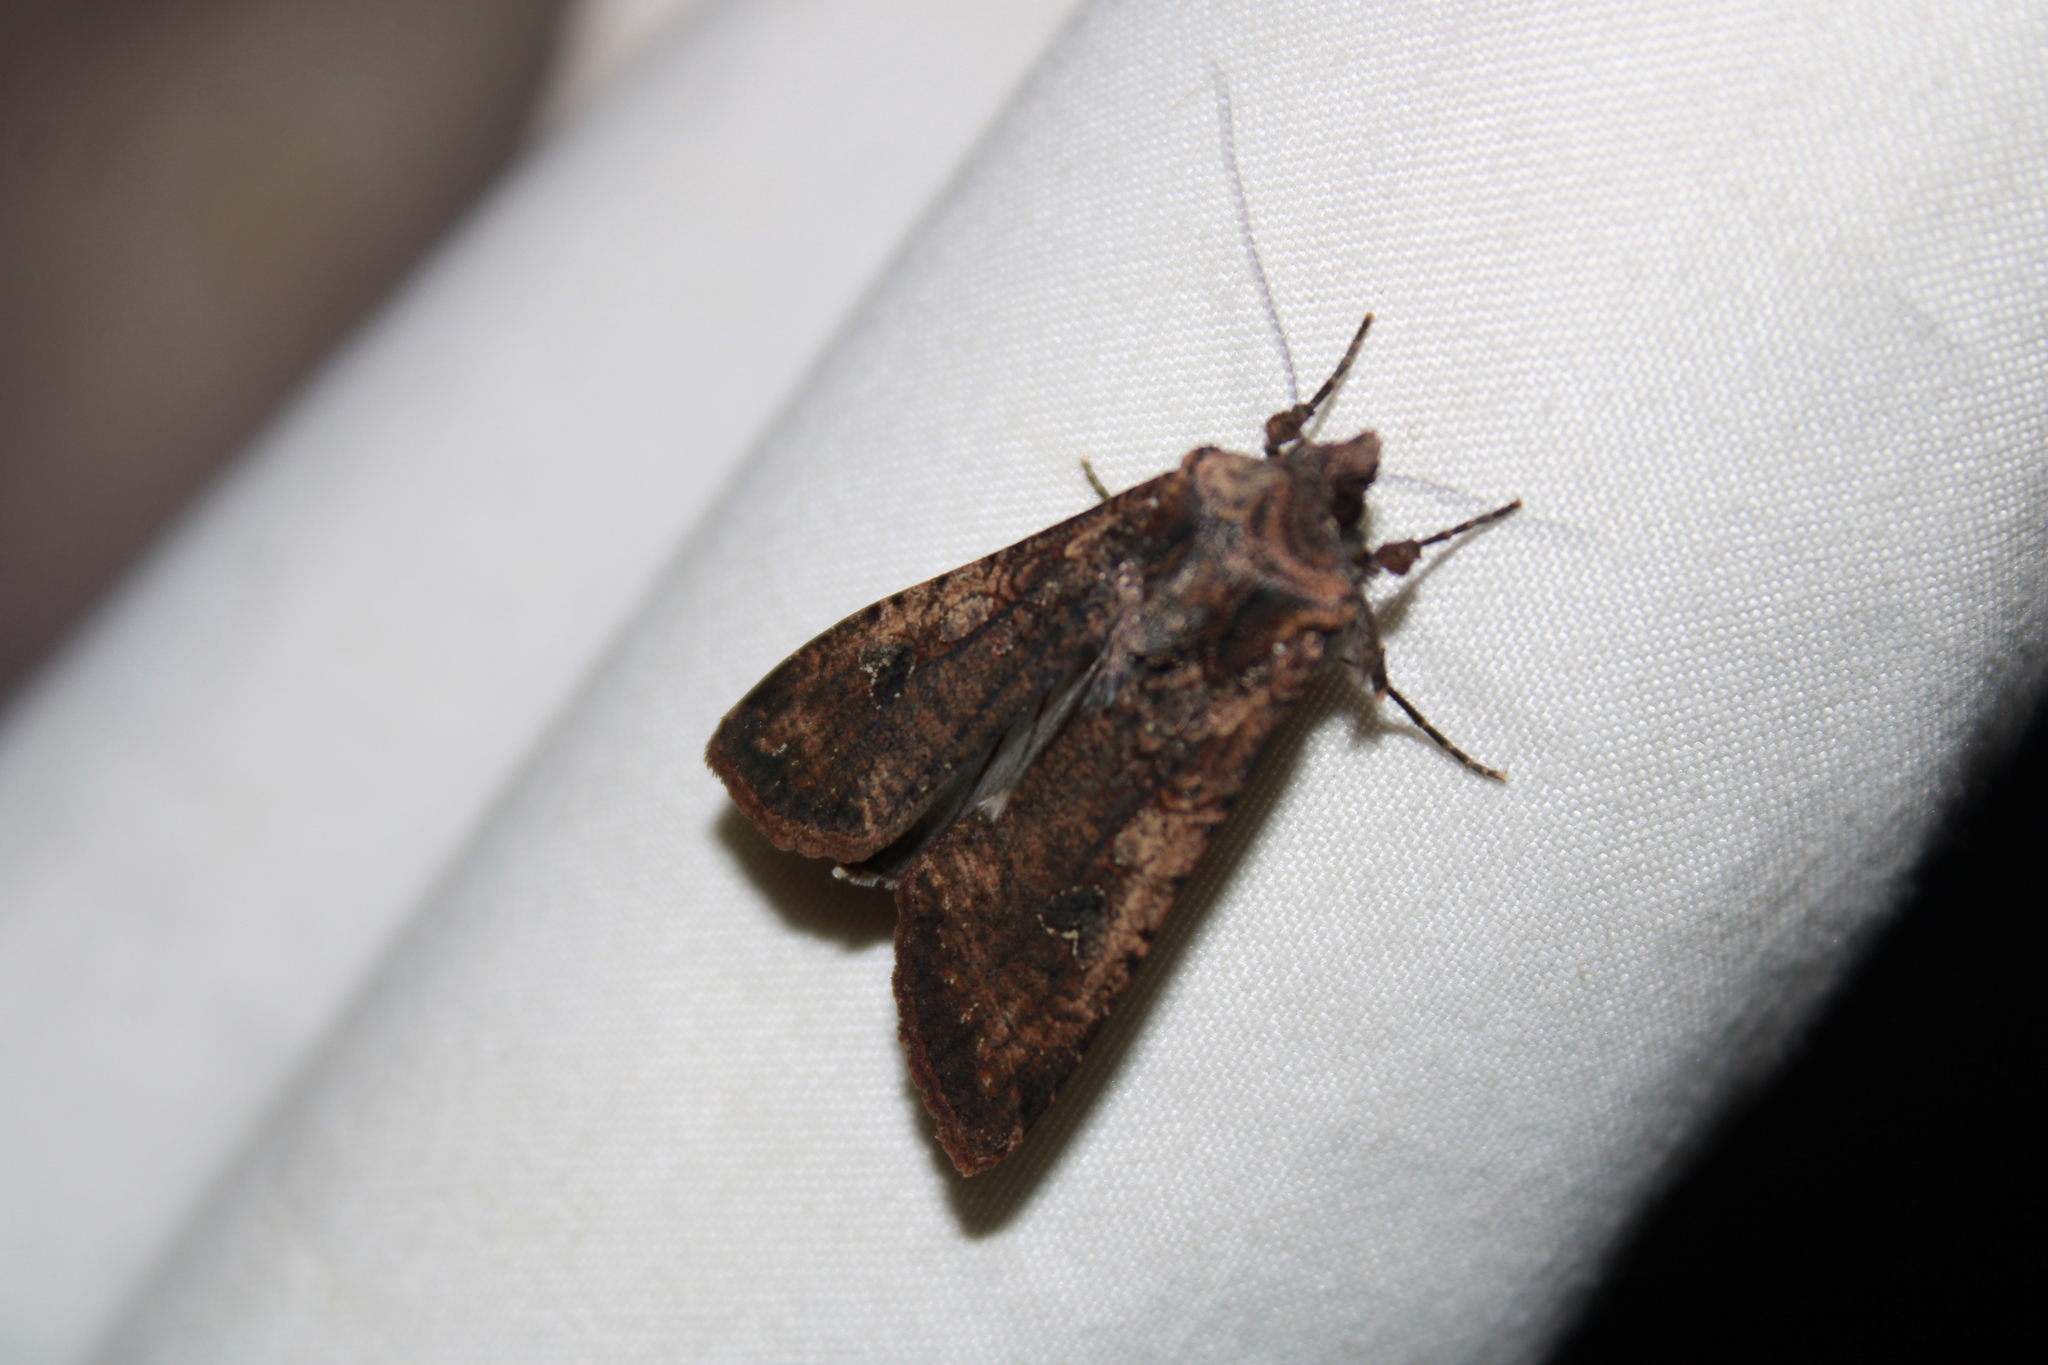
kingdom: Animalia
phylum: Arthropoda
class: Insecta
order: Lepidoptera
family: Noctuidae
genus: Peridroma
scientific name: Peridroma saucia
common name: Pearly underwing
